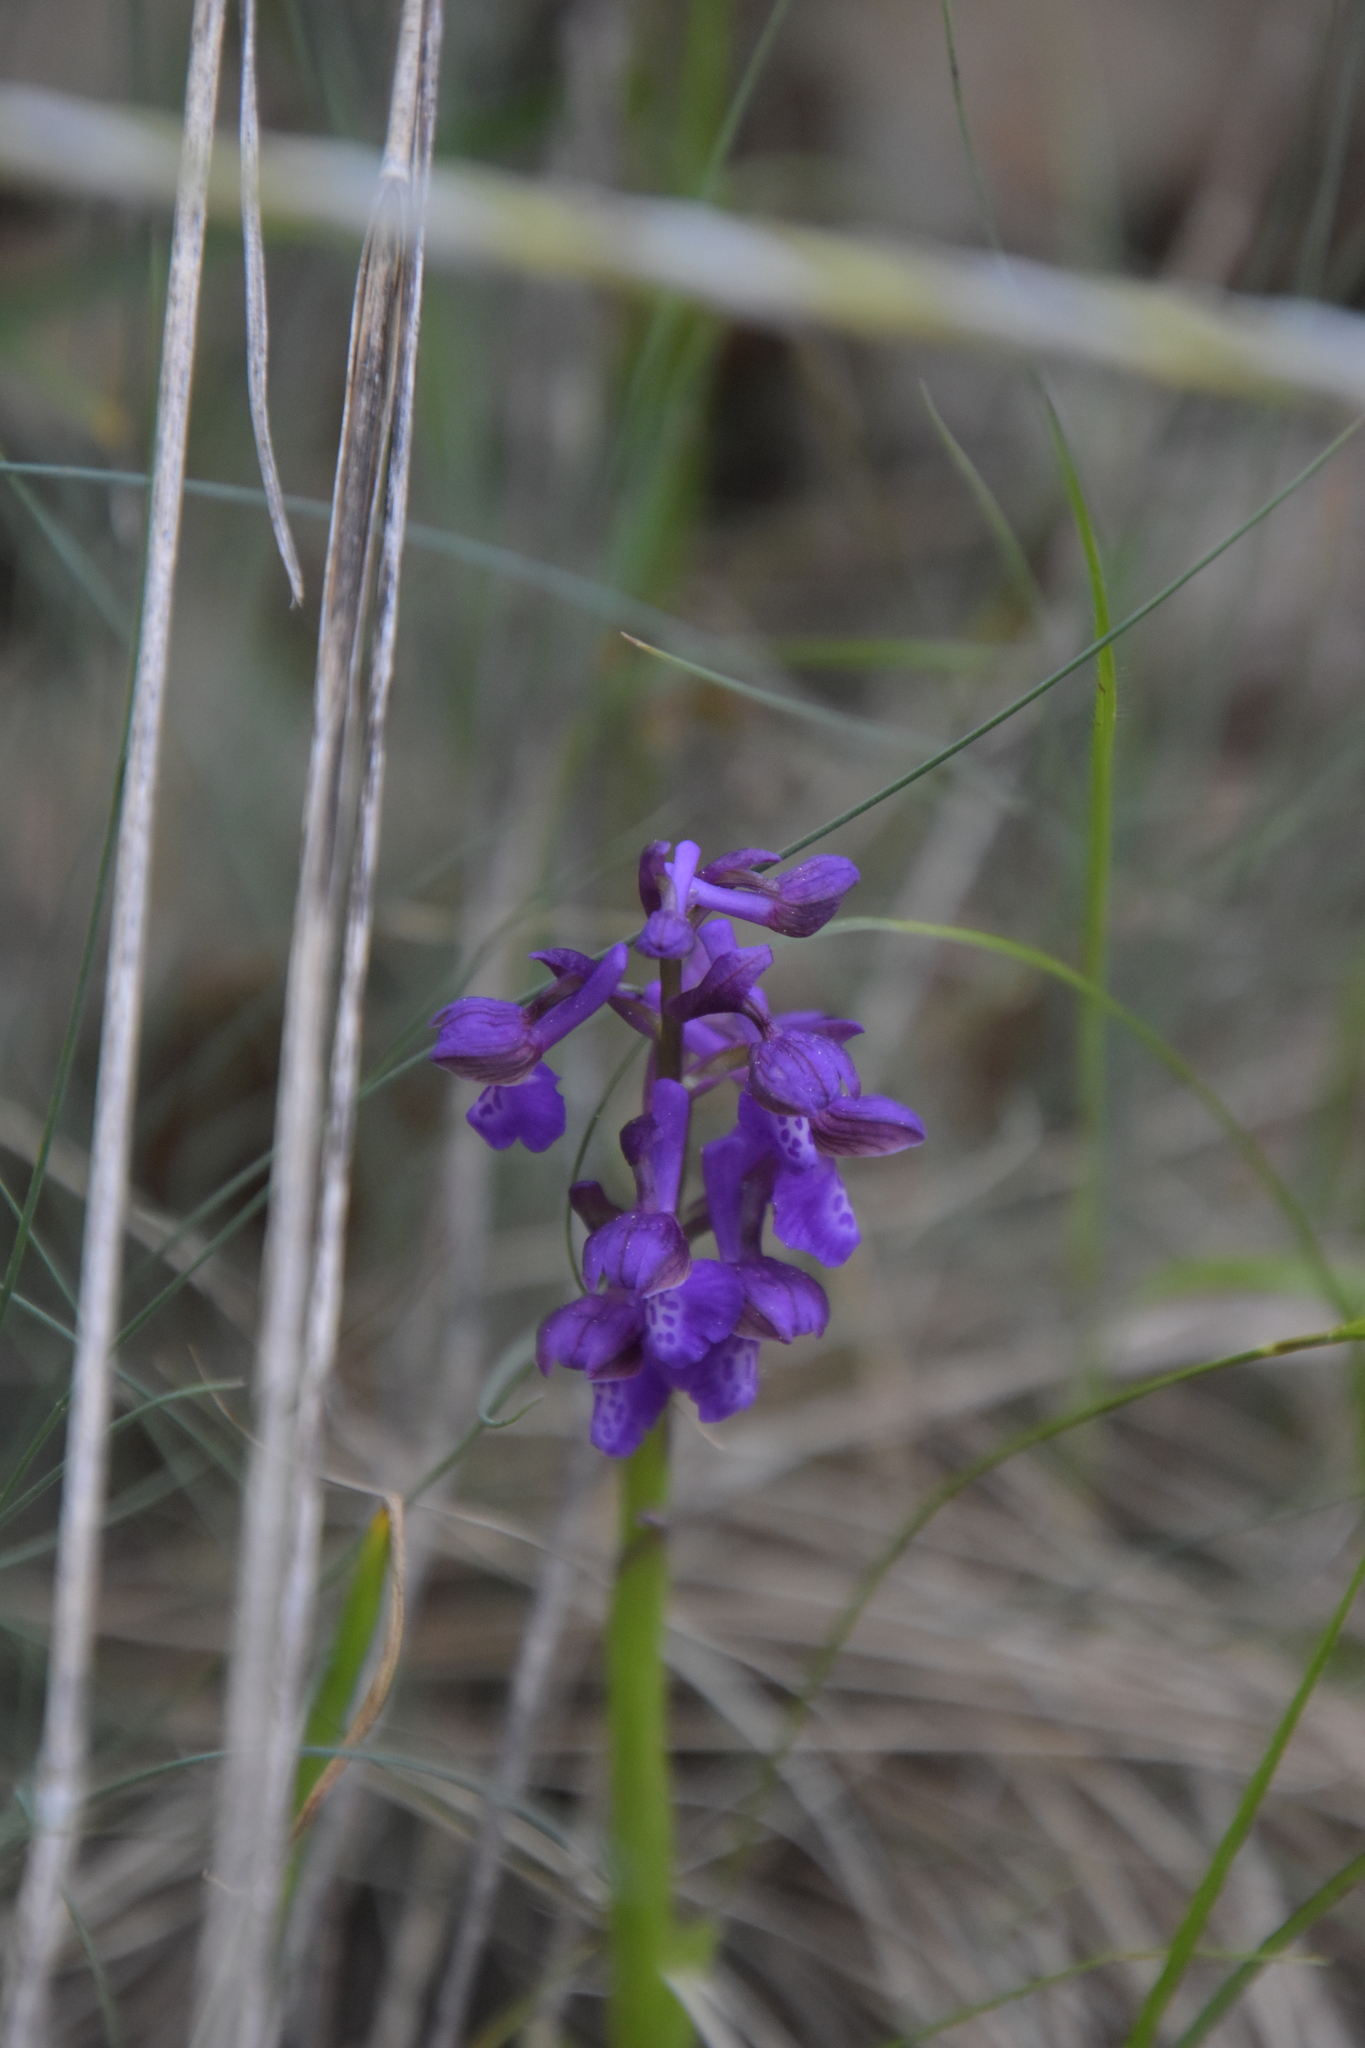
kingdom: Plantae
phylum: Tracheophyta
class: Liliopsida
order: Asparagales
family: Orchidaceae
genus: Anacamptis
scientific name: Anacamptis morio
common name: Green-winged orchid
